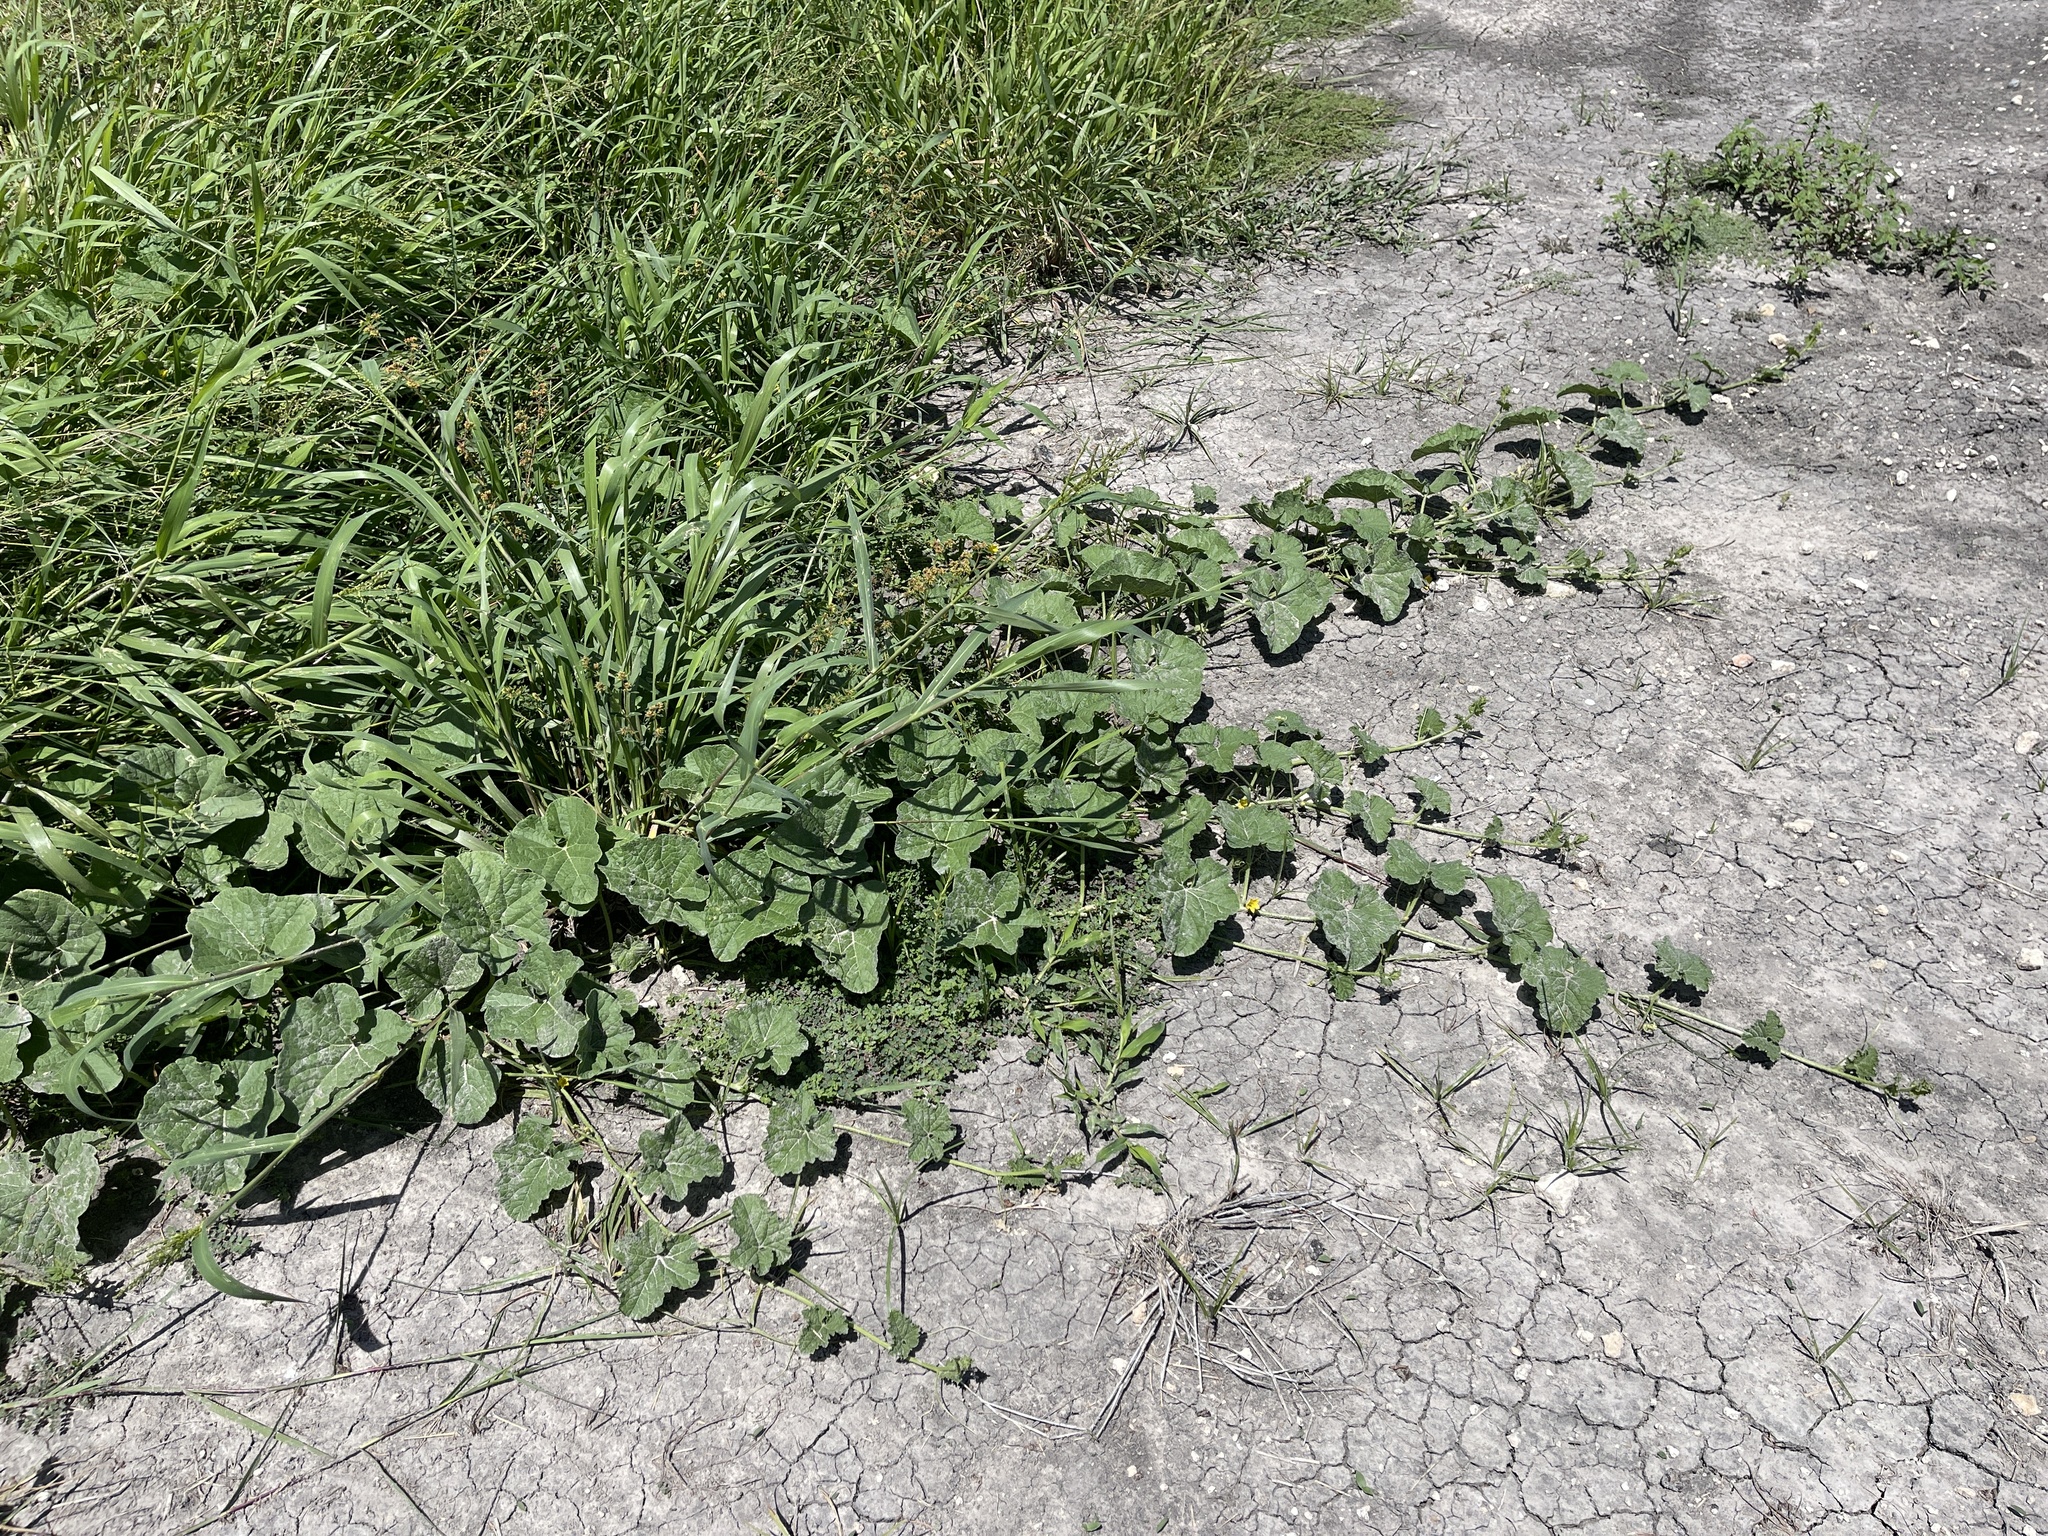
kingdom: Plantae
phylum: Tracheophyta
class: Magnoliopsida
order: Cucurbitales
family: Cucurbitaceae
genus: Cucumis
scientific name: Cucumis melo
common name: Melon
